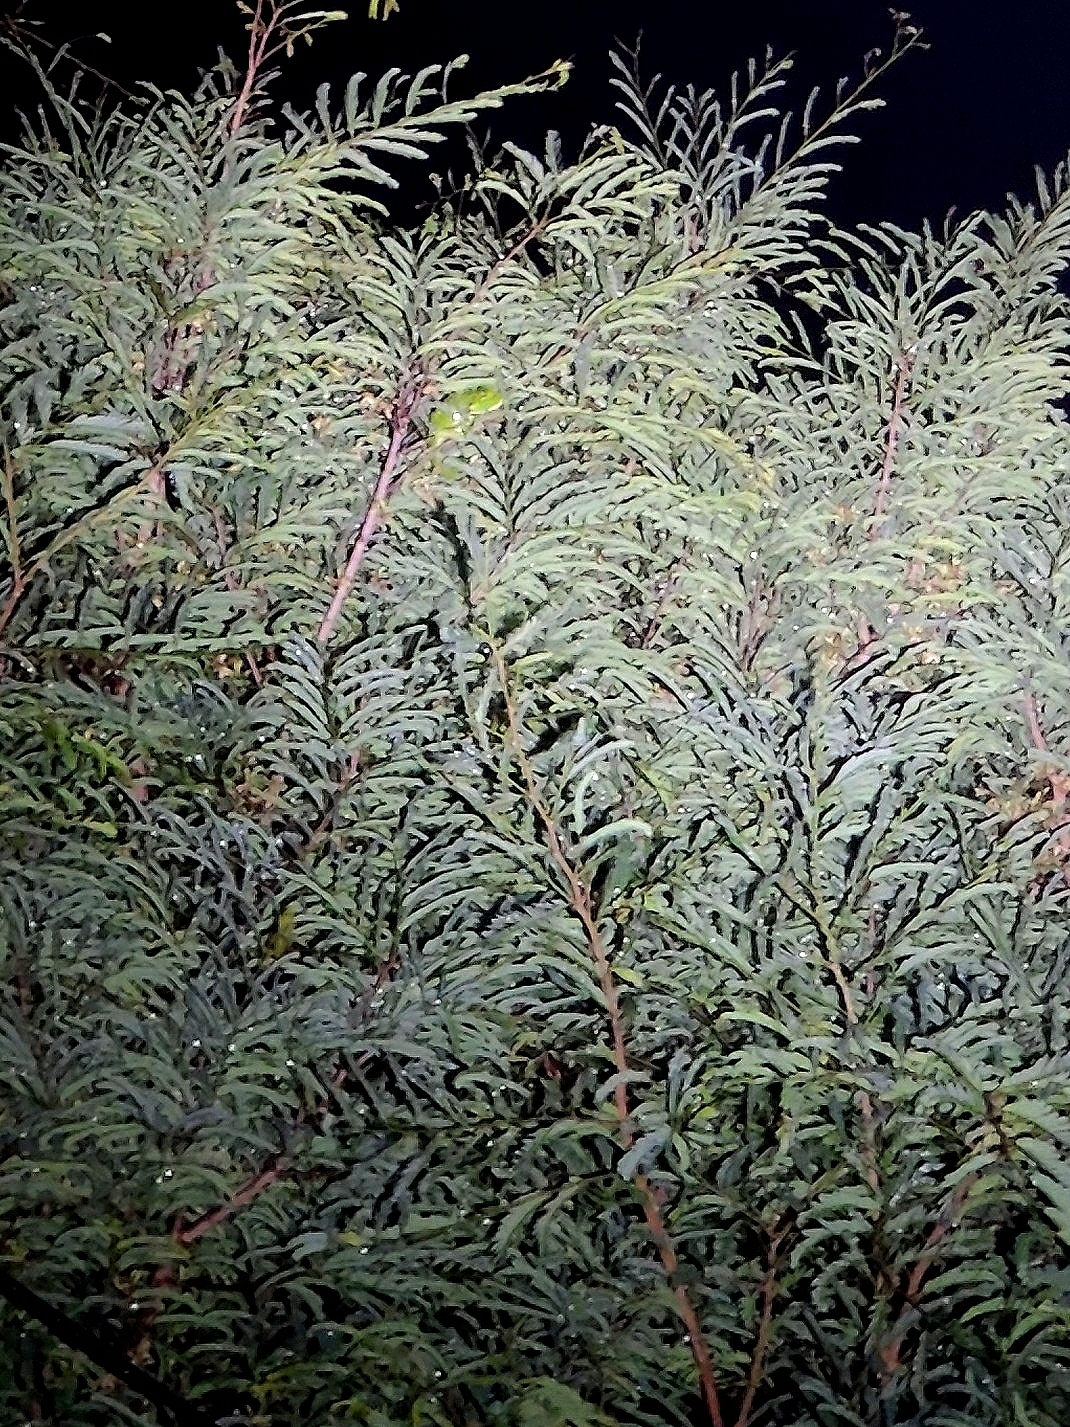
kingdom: Animalia
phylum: Chordata
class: Squamata
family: Chamaeleonidae
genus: Chamaeleo
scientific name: Chamaeleo zeylanicus
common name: Indian chameleon
